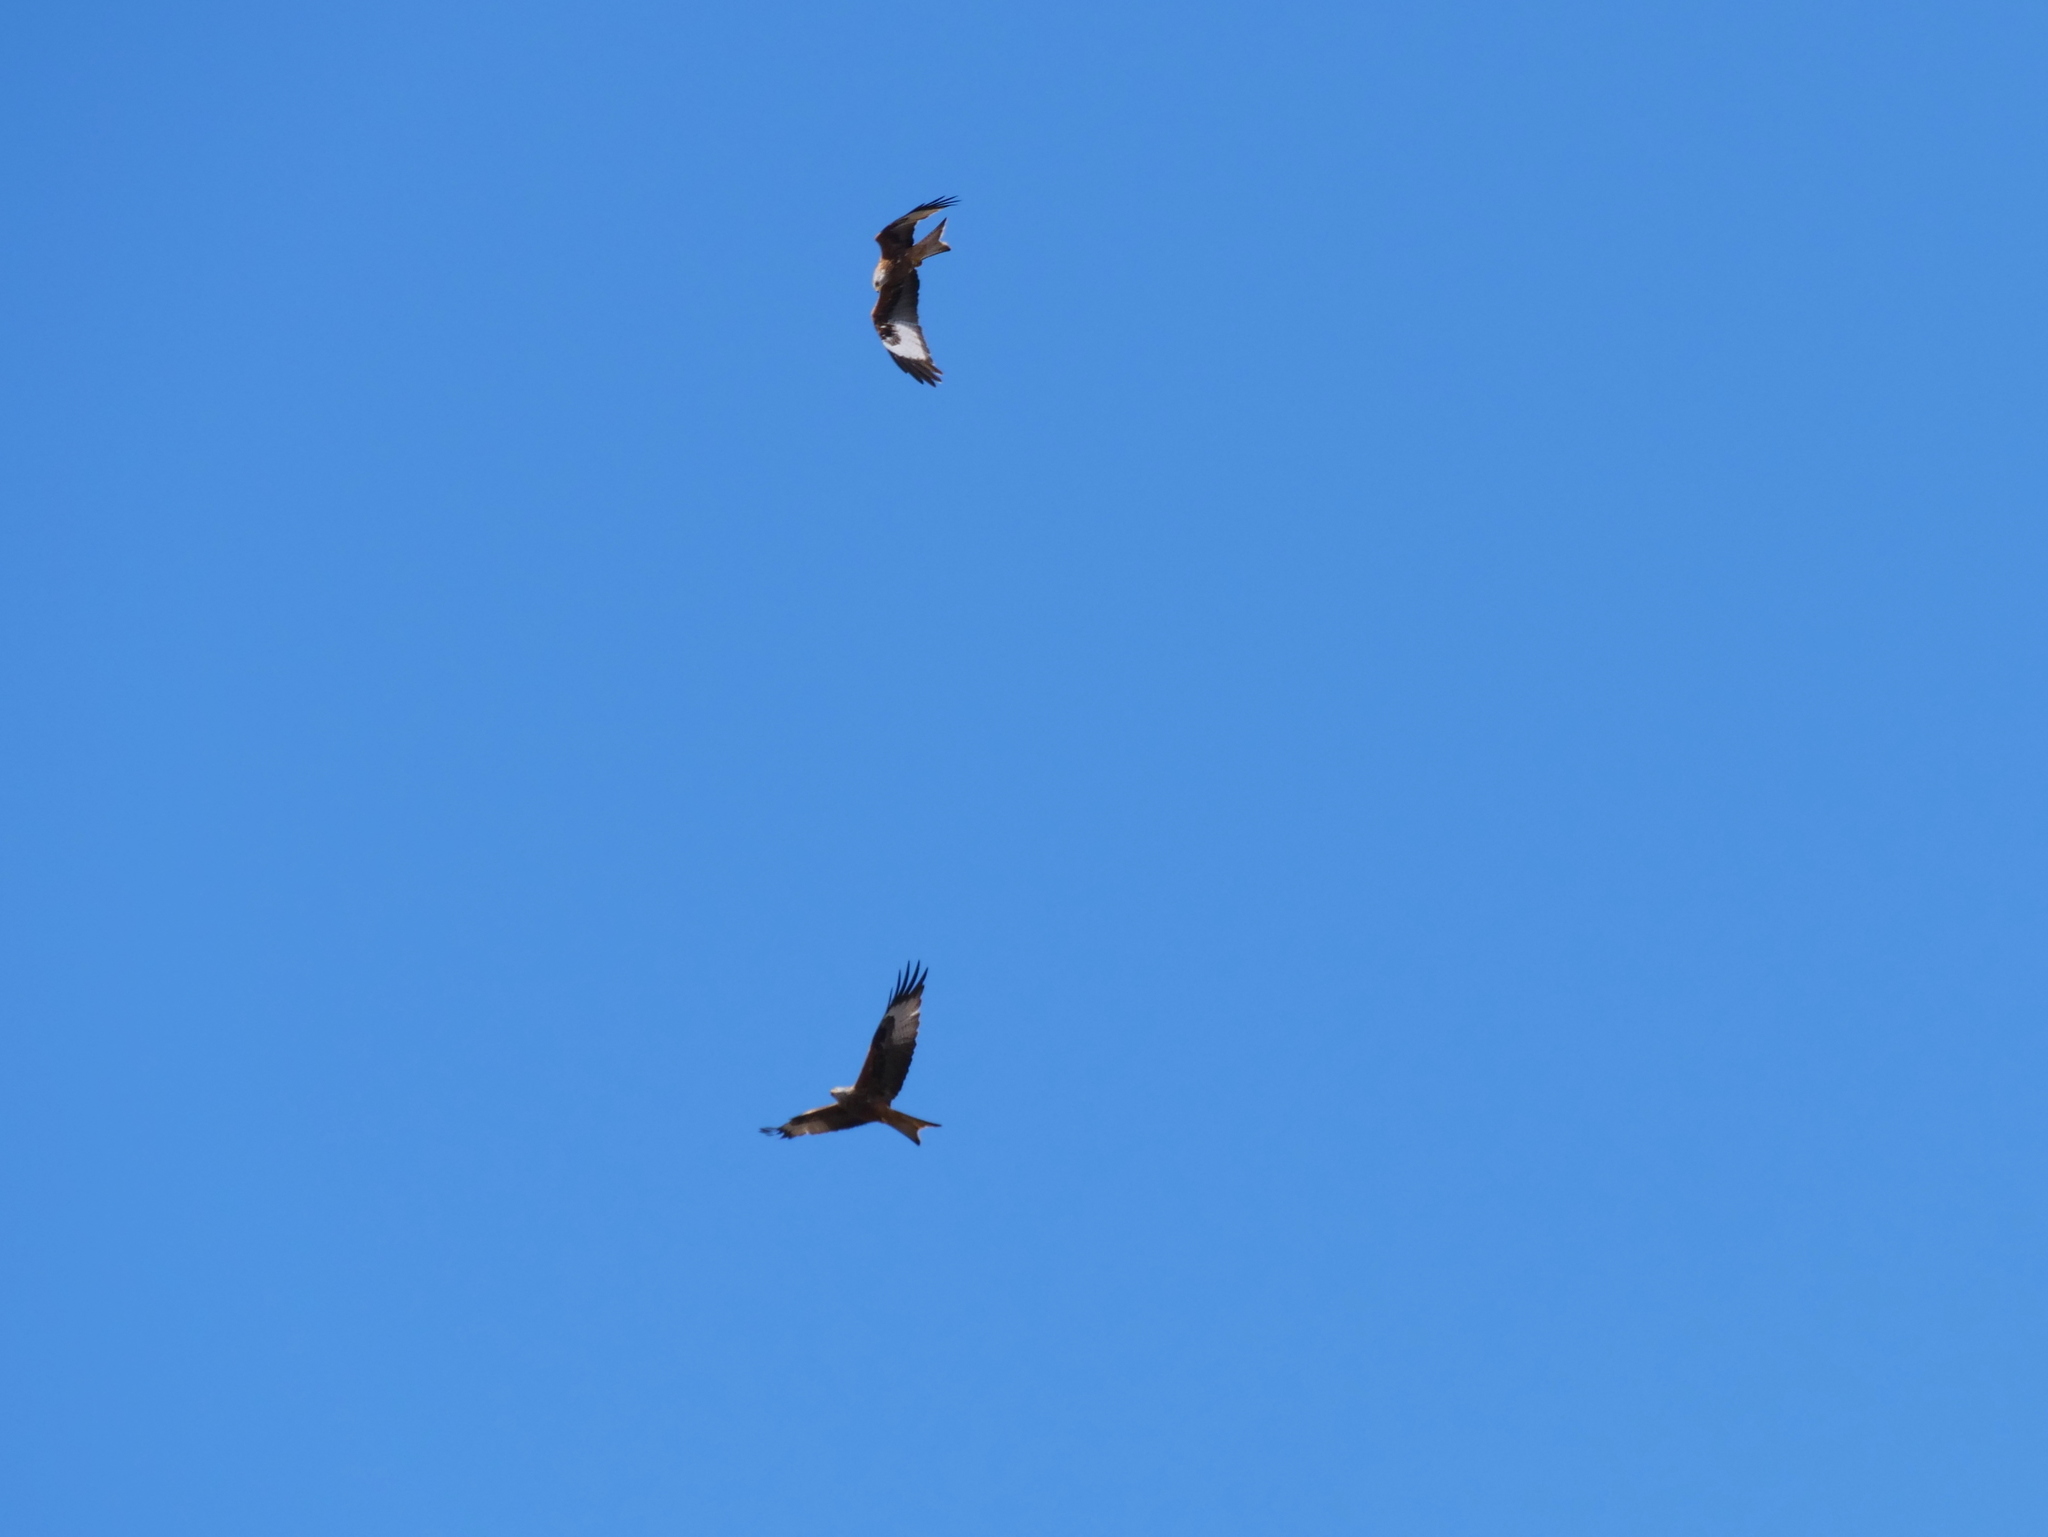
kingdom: Animalia
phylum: Chordata
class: Aves
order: Accipitriformes
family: Accipitridae
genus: Milvus
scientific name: Milvus milvus
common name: Red kite
